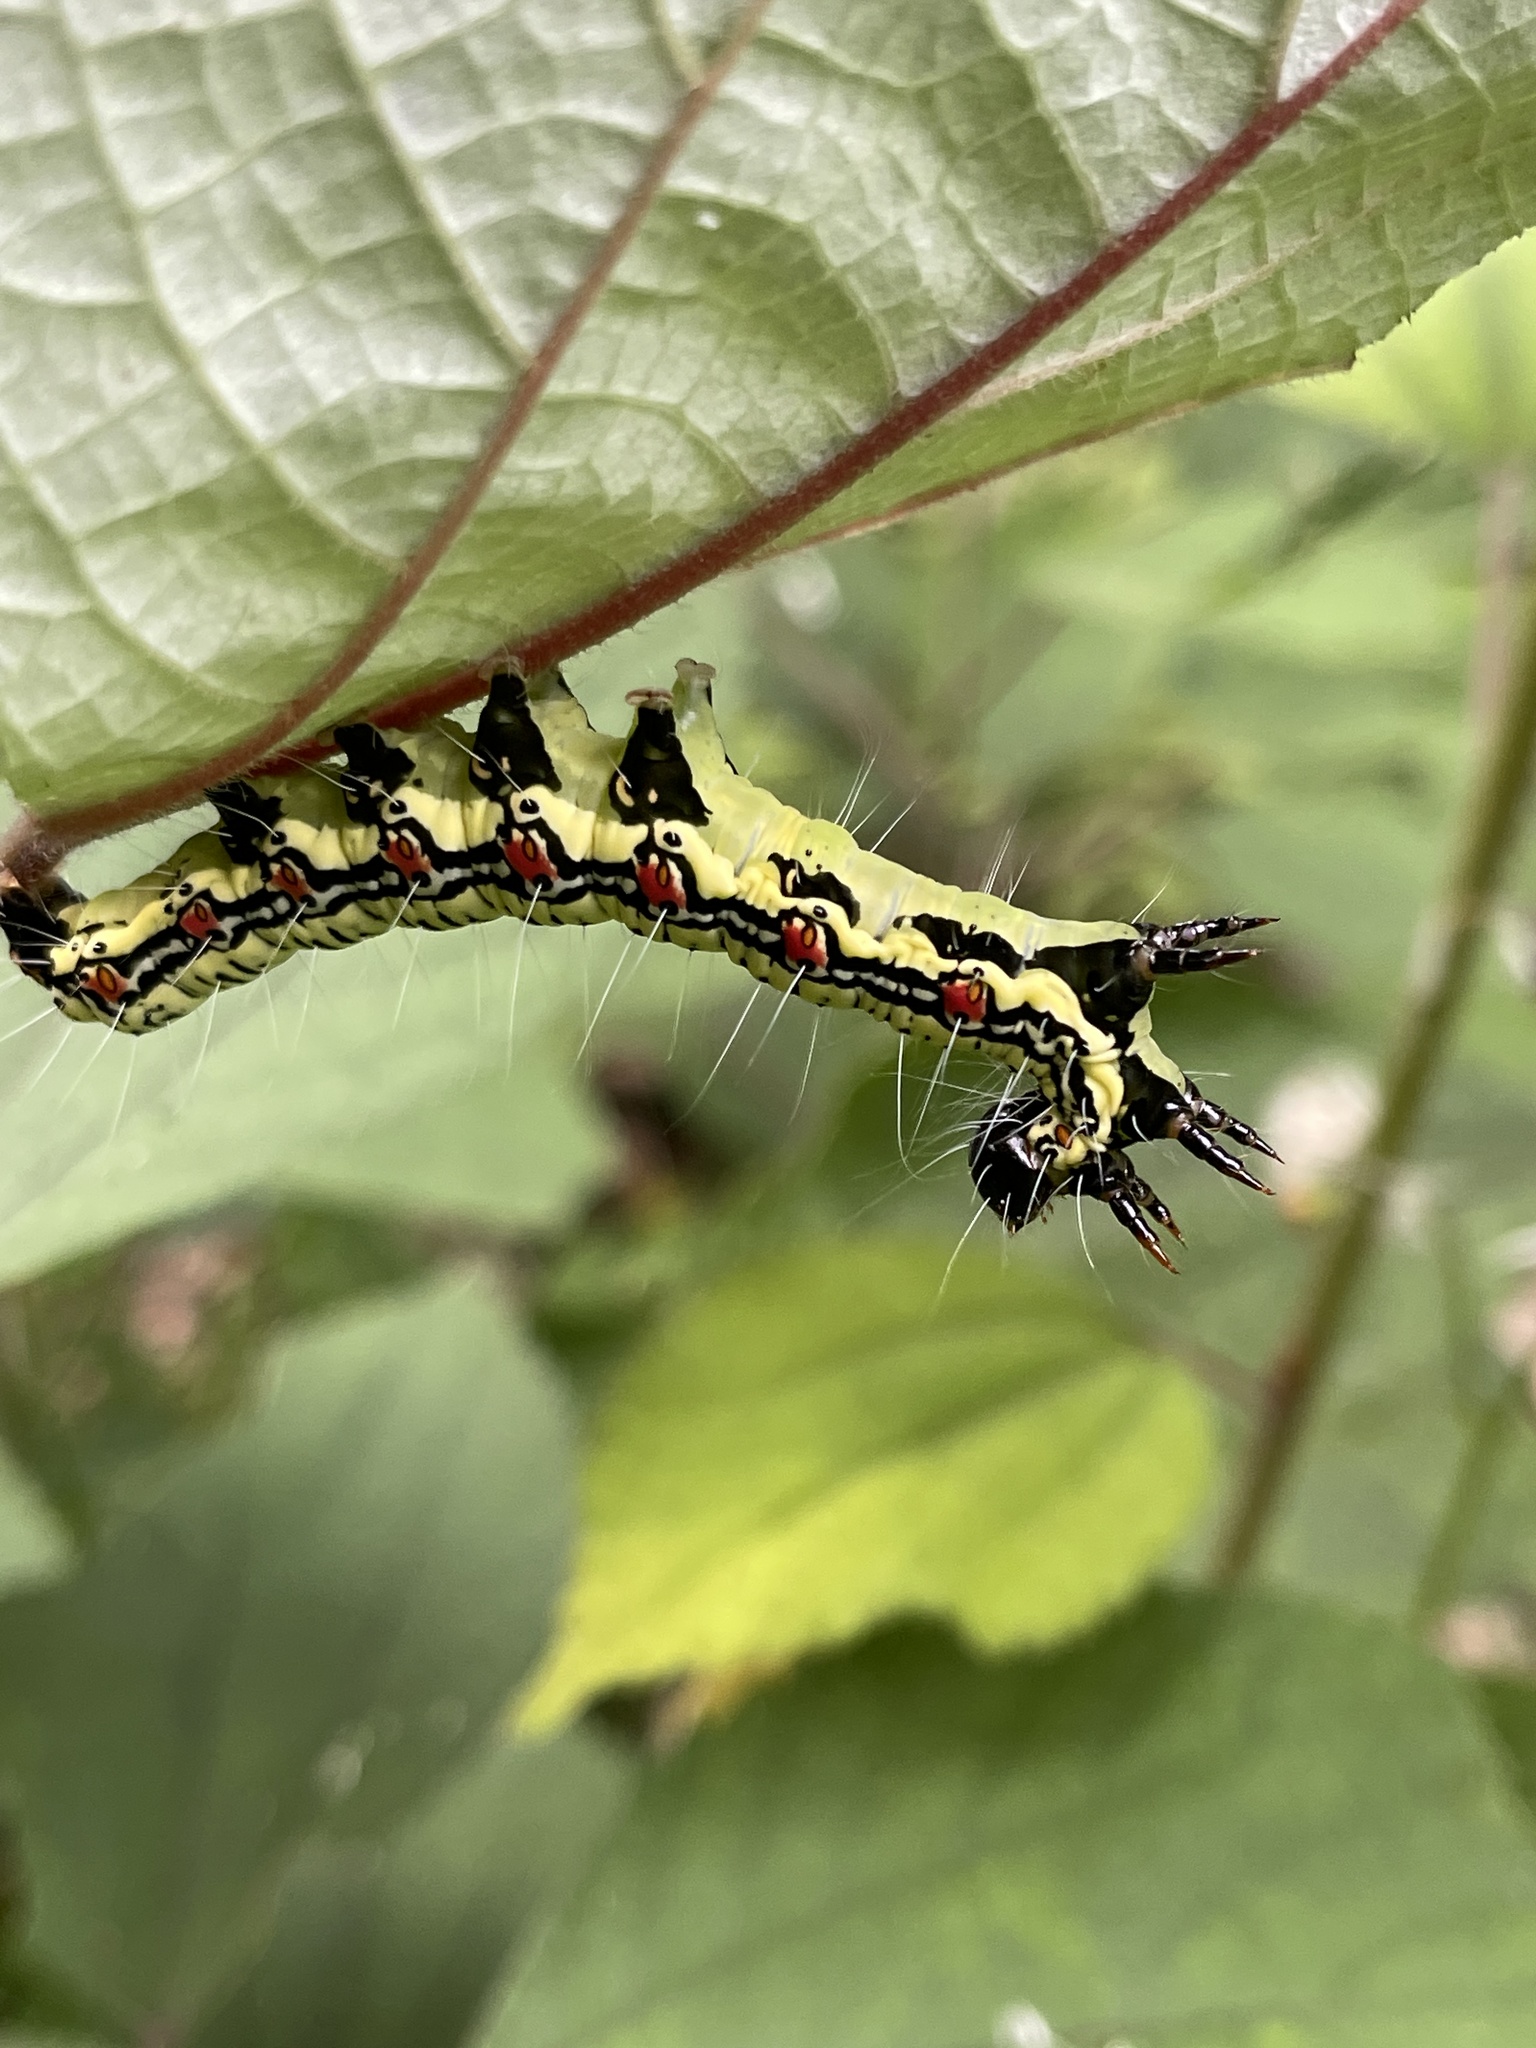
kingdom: Animalia
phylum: Arthropoda
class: Insecta
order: Lepidoptera
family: Erebidae
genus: Arcte
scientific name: Arcte coerula
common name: Ramie moth
